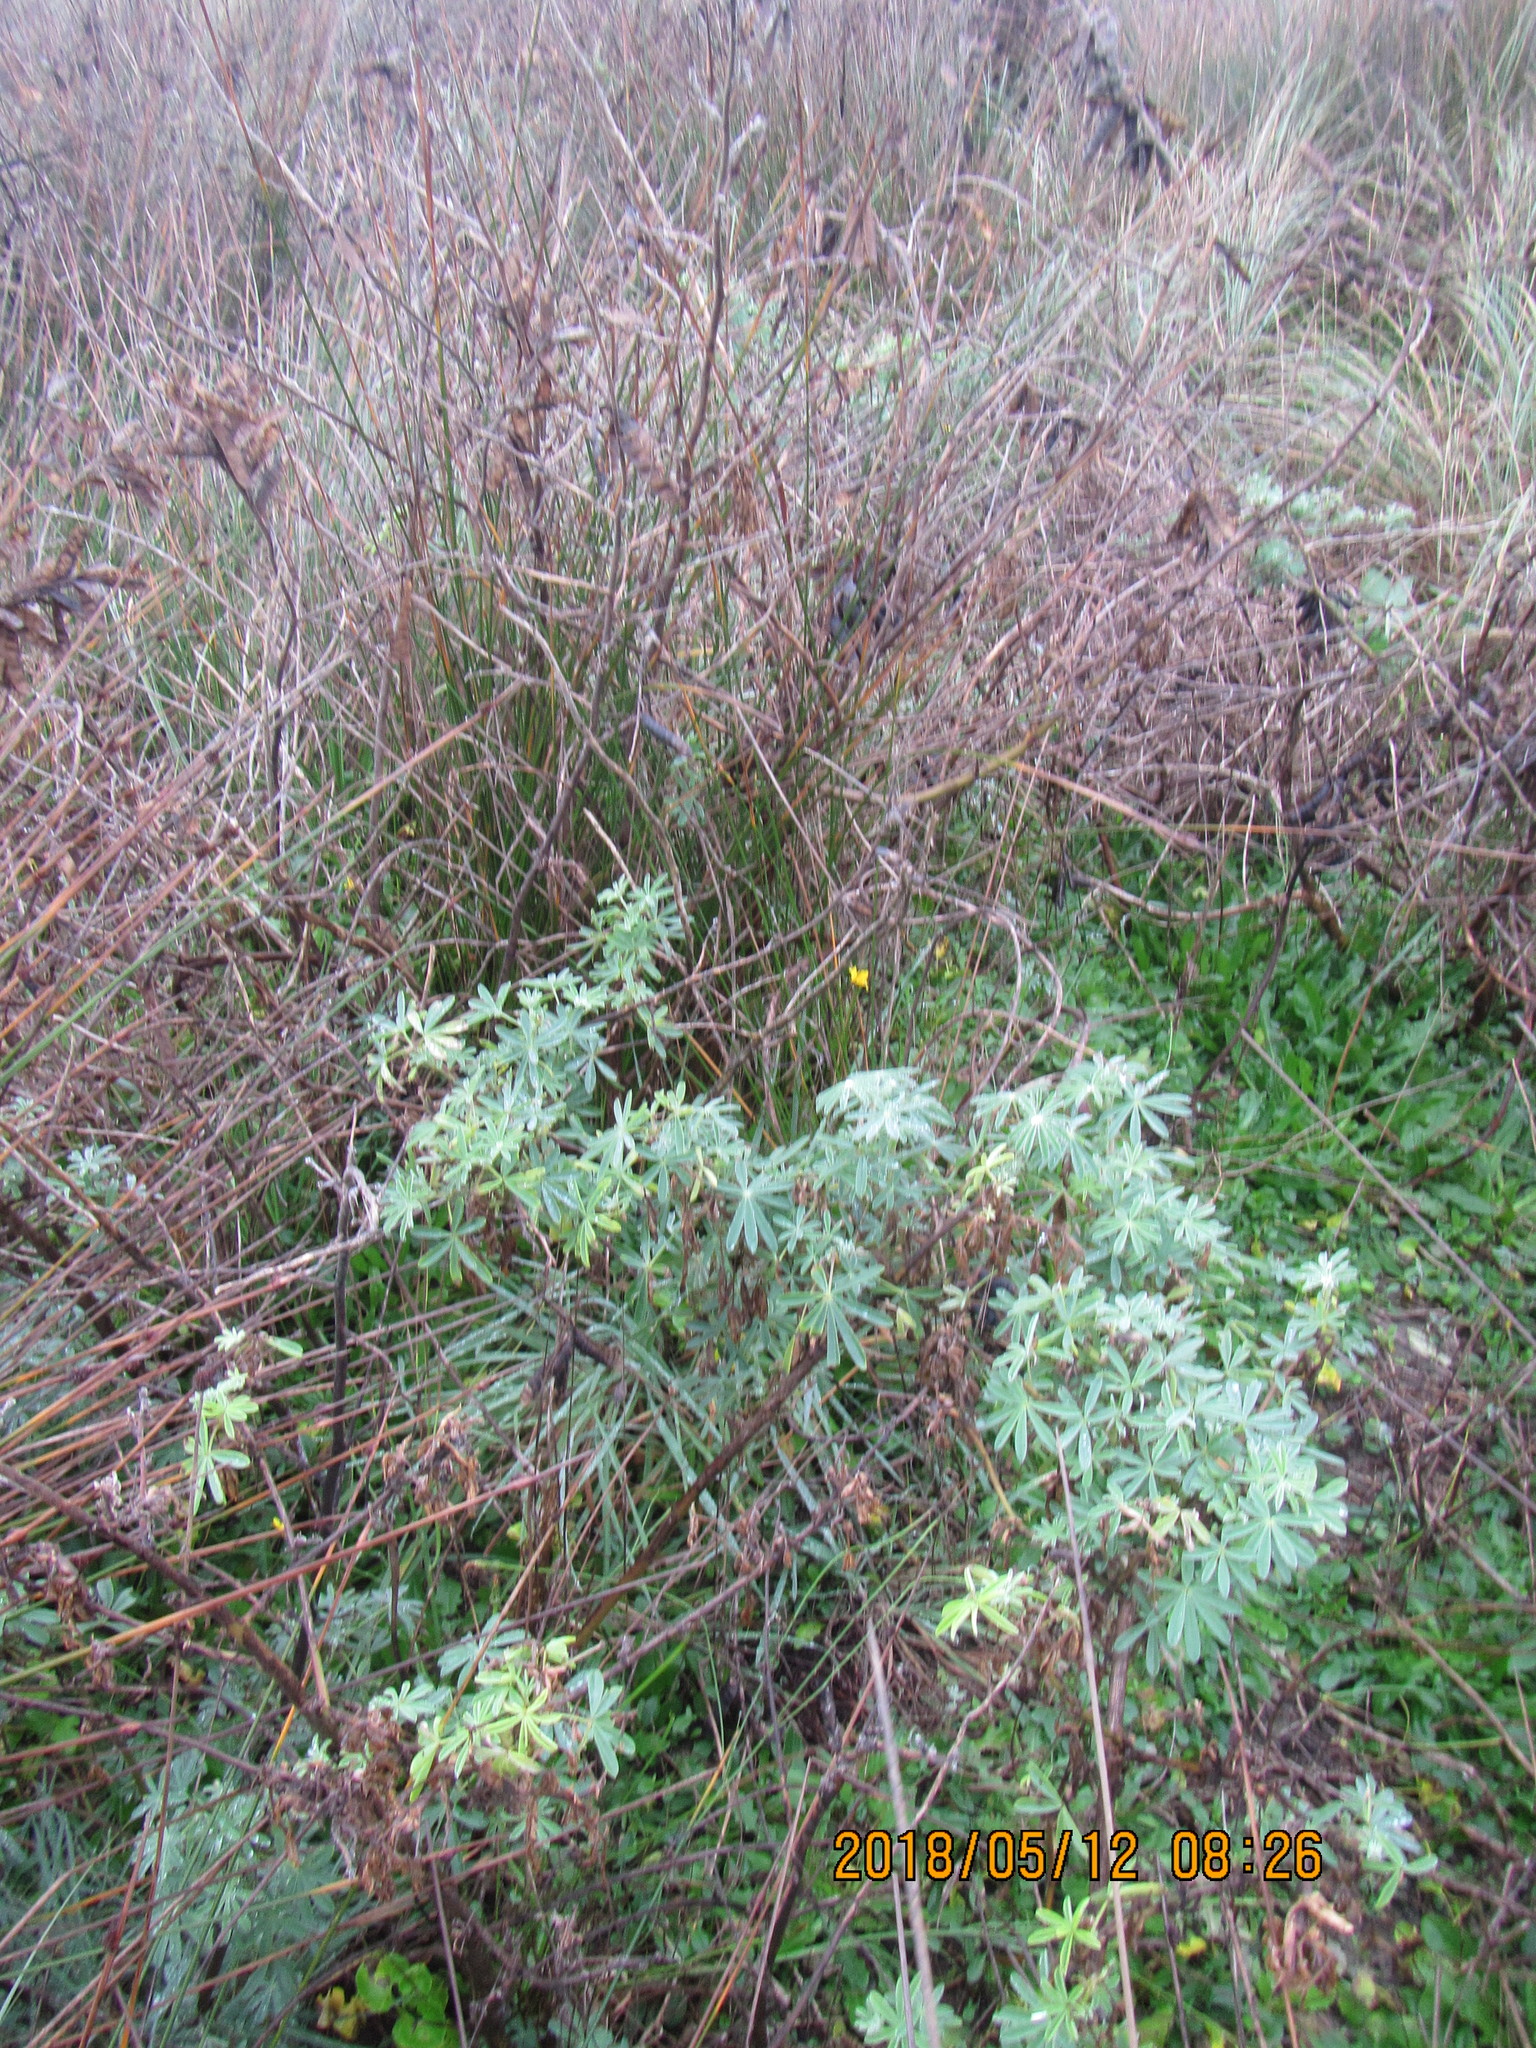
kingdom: Plantae
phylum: Tracheophyta
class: Magnoliopsida
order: Fabales
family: Fabaceae
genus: Lupinus
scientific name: Lupinus arboreus
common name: Yellow bush lupine
